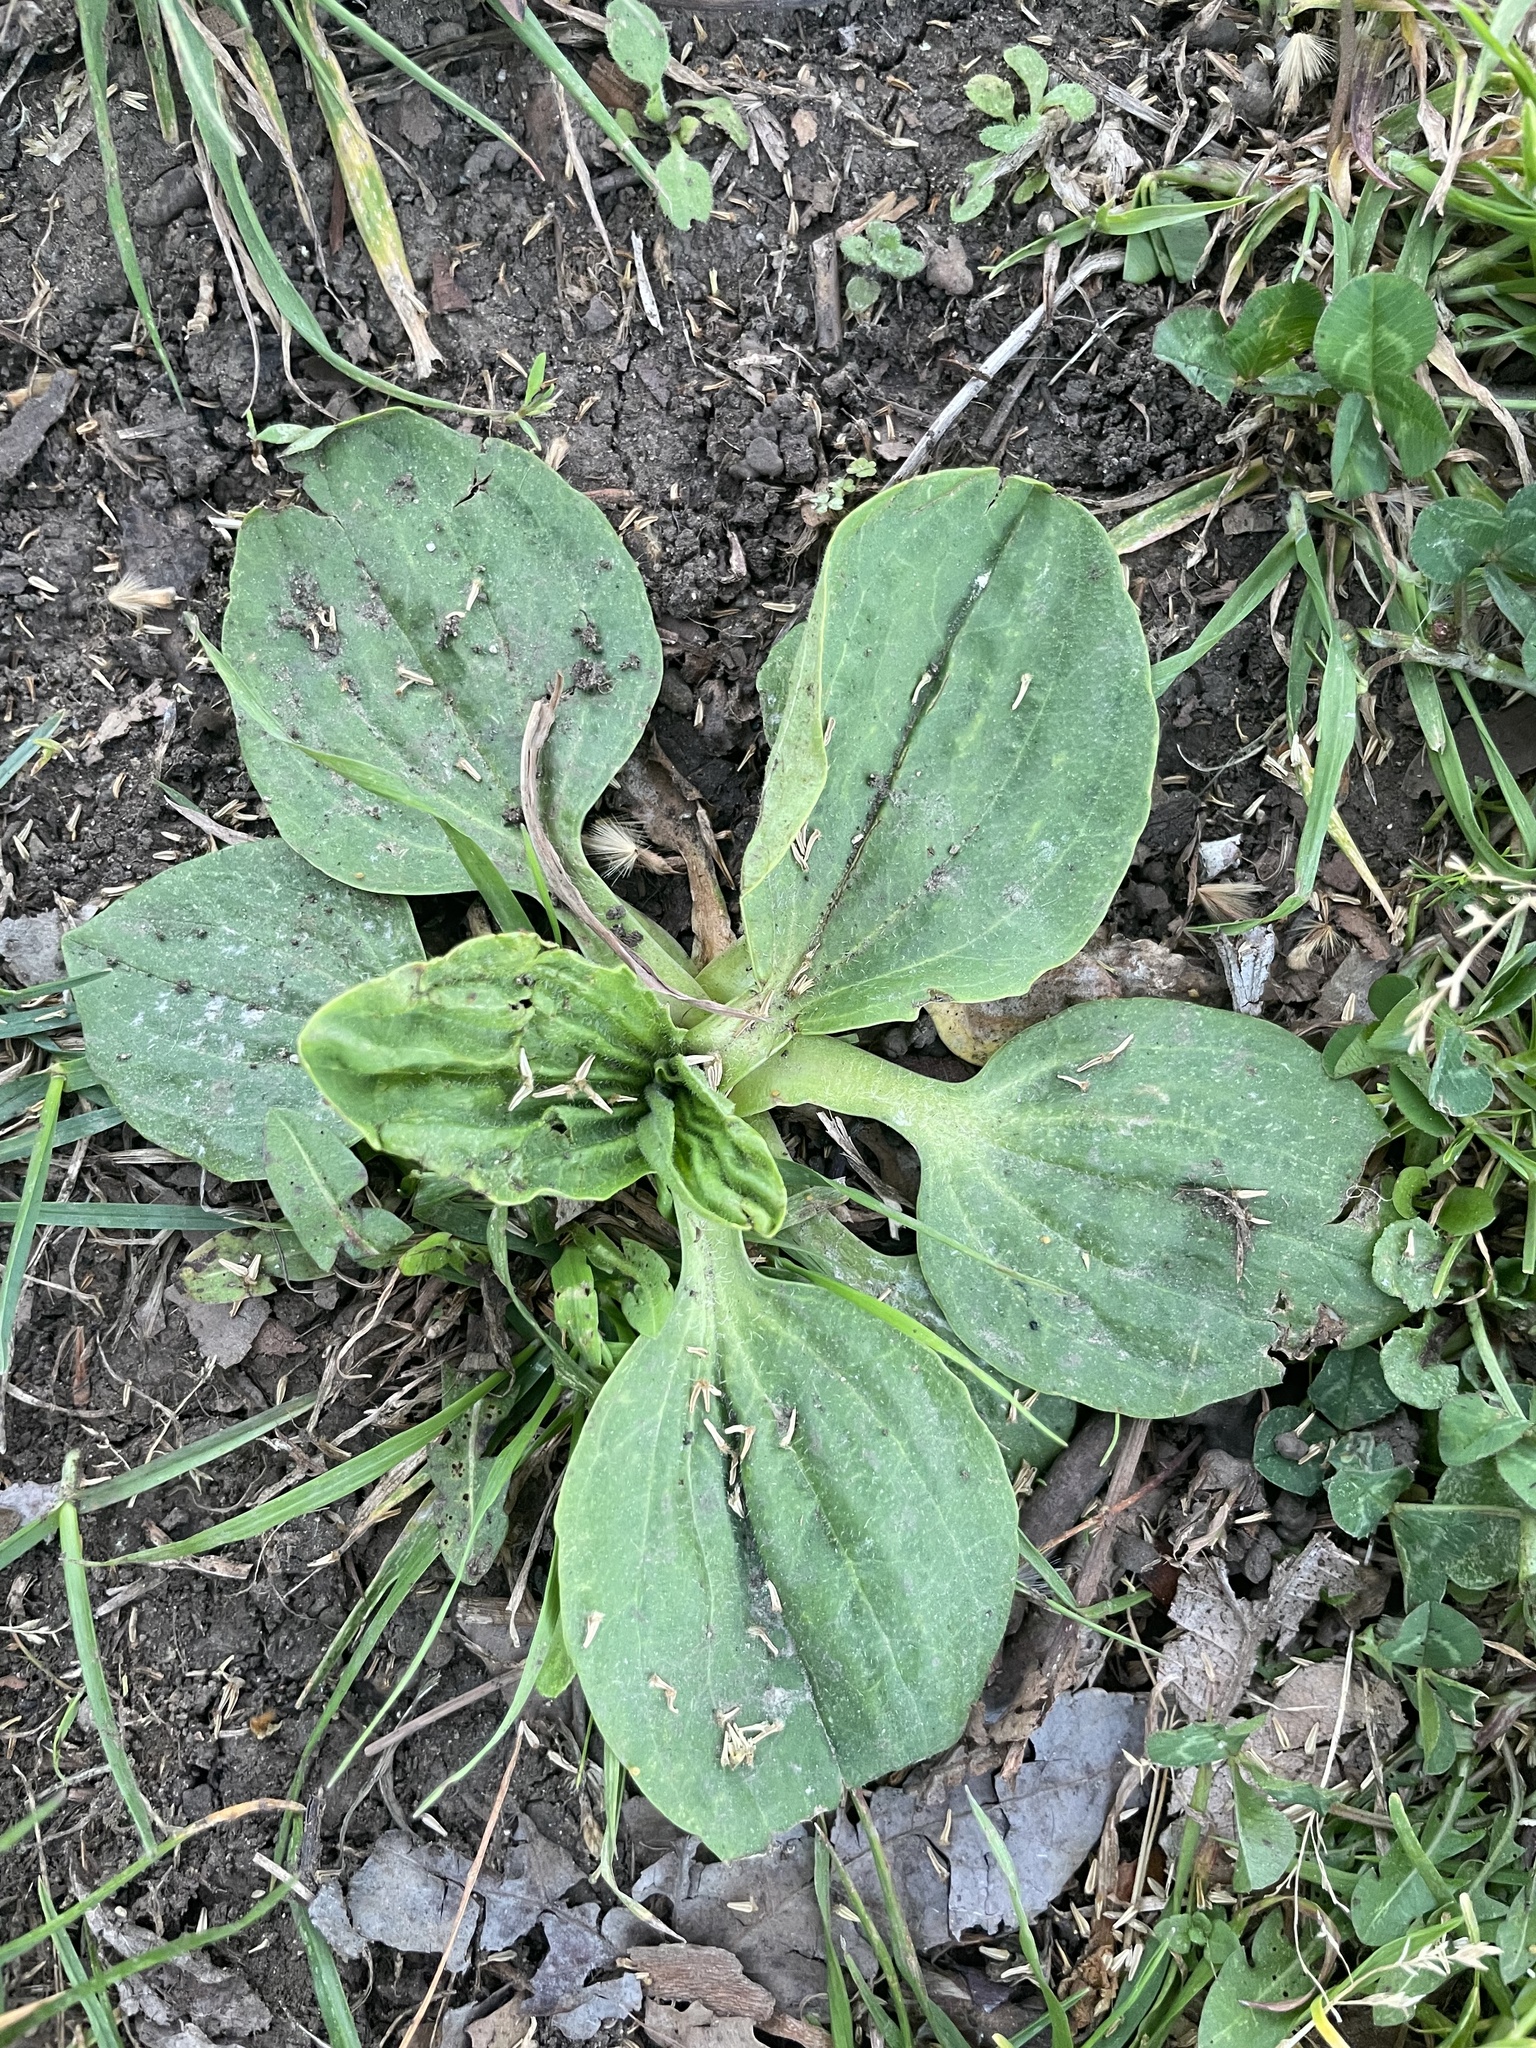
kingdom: Plantae
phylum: Tracheophyta
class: Magnoliopsida
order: Lamiales
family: Plantaginaceae
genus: Plantago
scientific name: Plantago major
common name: Common plantain
